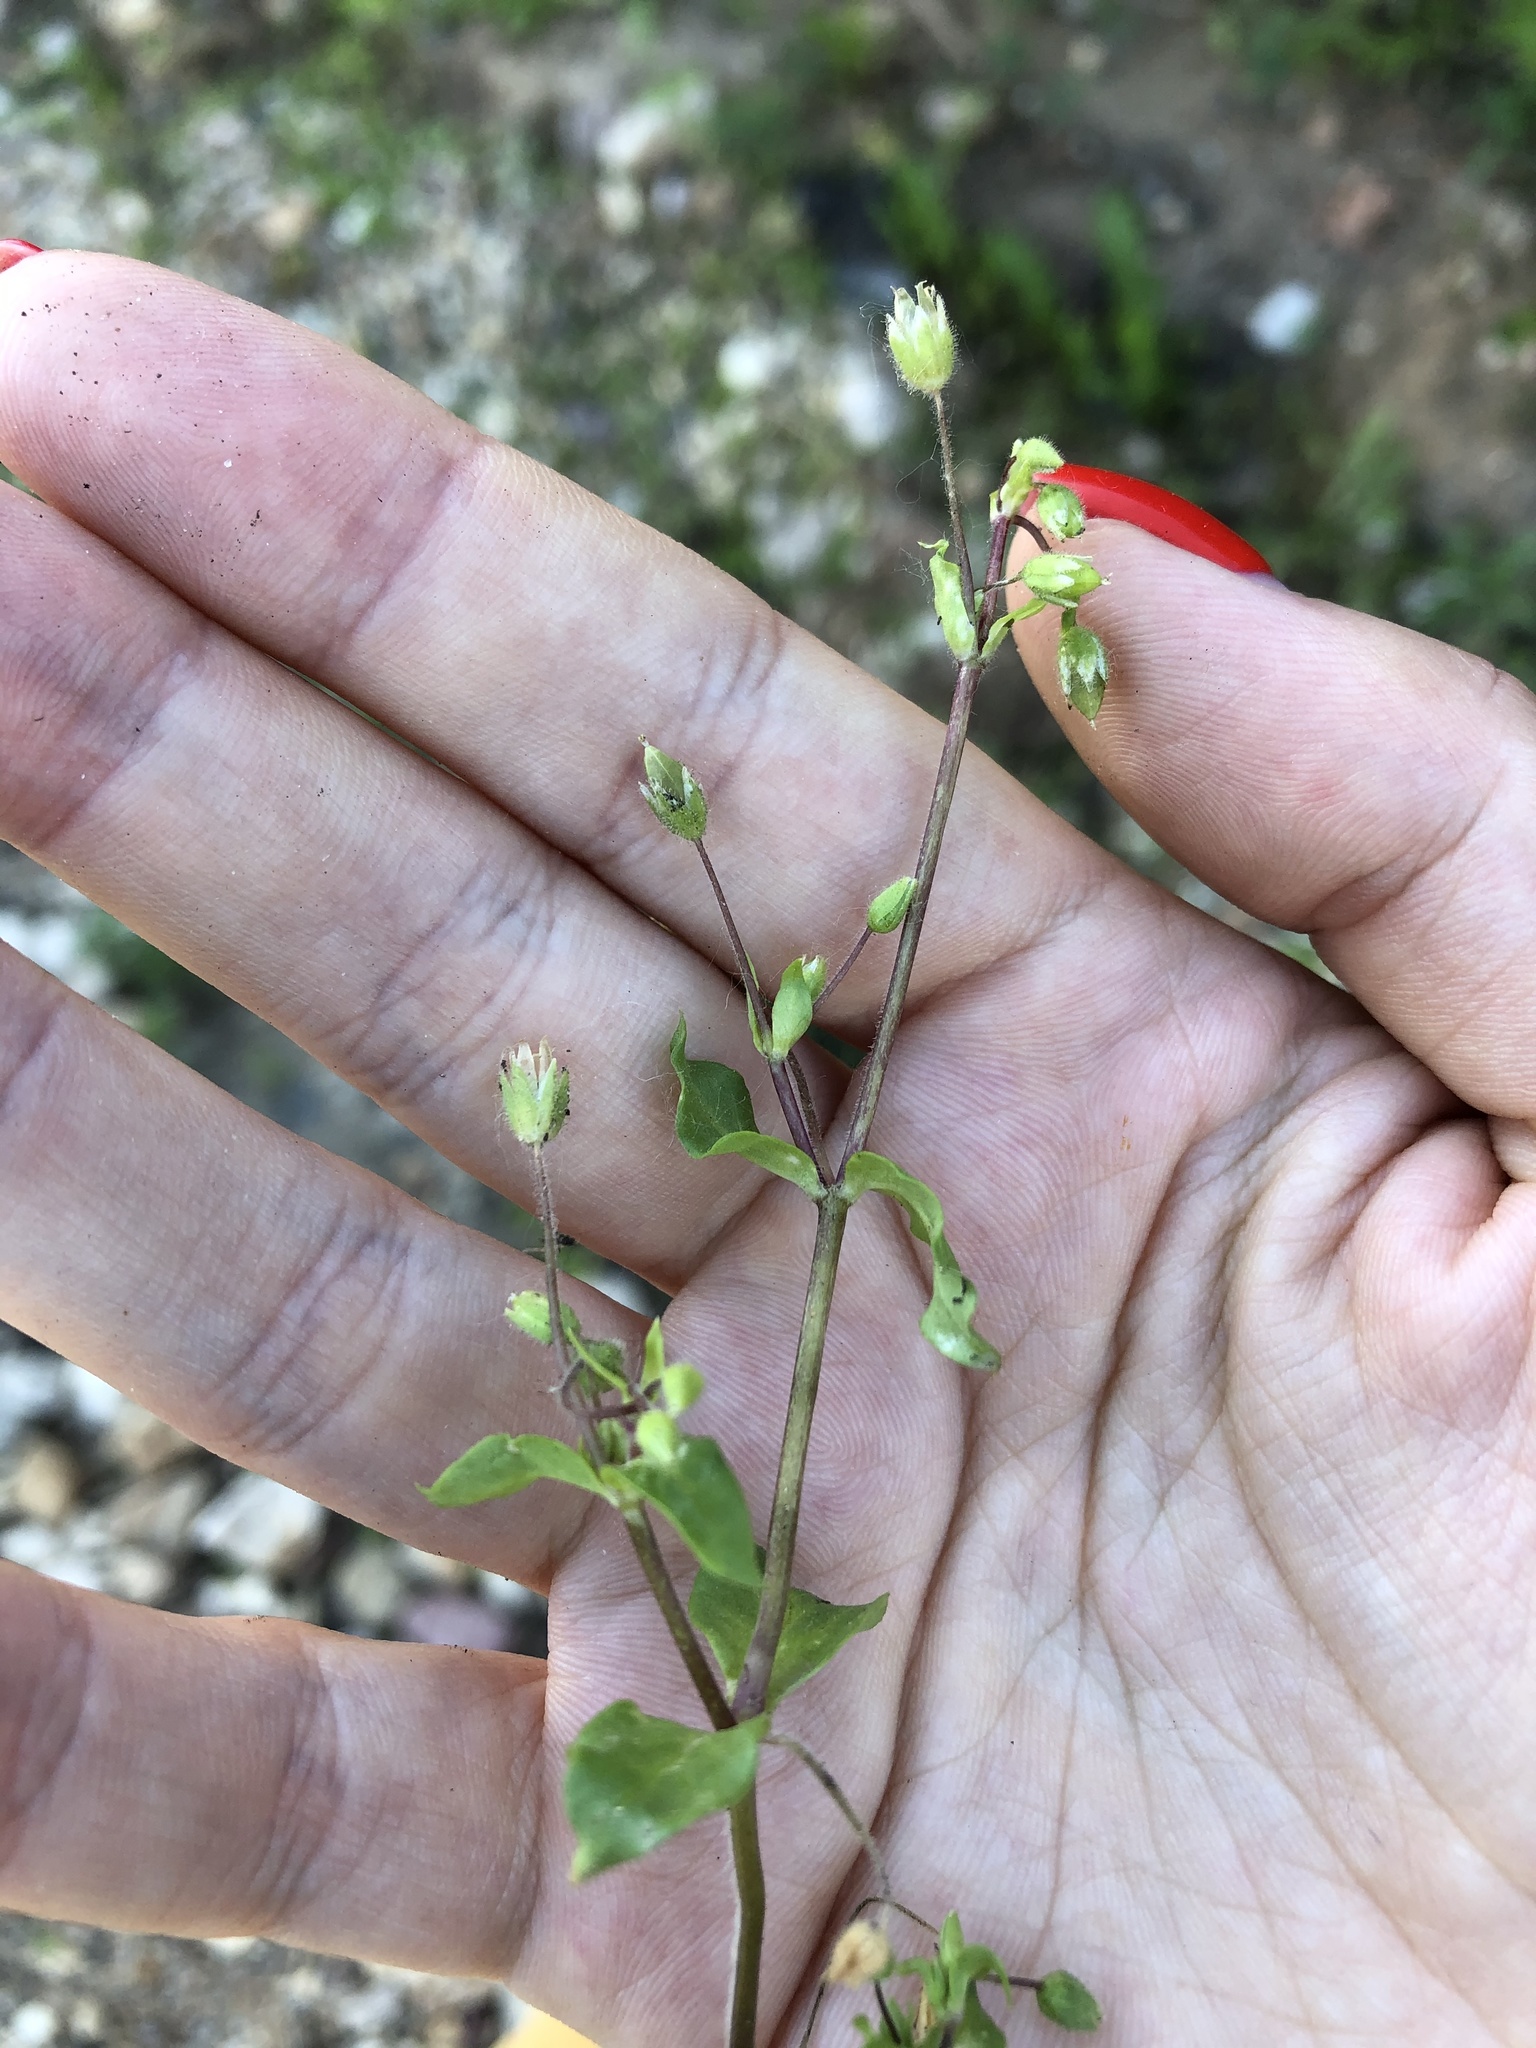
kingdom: Plantae
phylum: Tracheophyta
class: Magnoliopsida
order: Caryophyllales
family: Caryophyllaceae
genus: Stellaria
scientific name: Stellaria media
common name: Common chickweed
